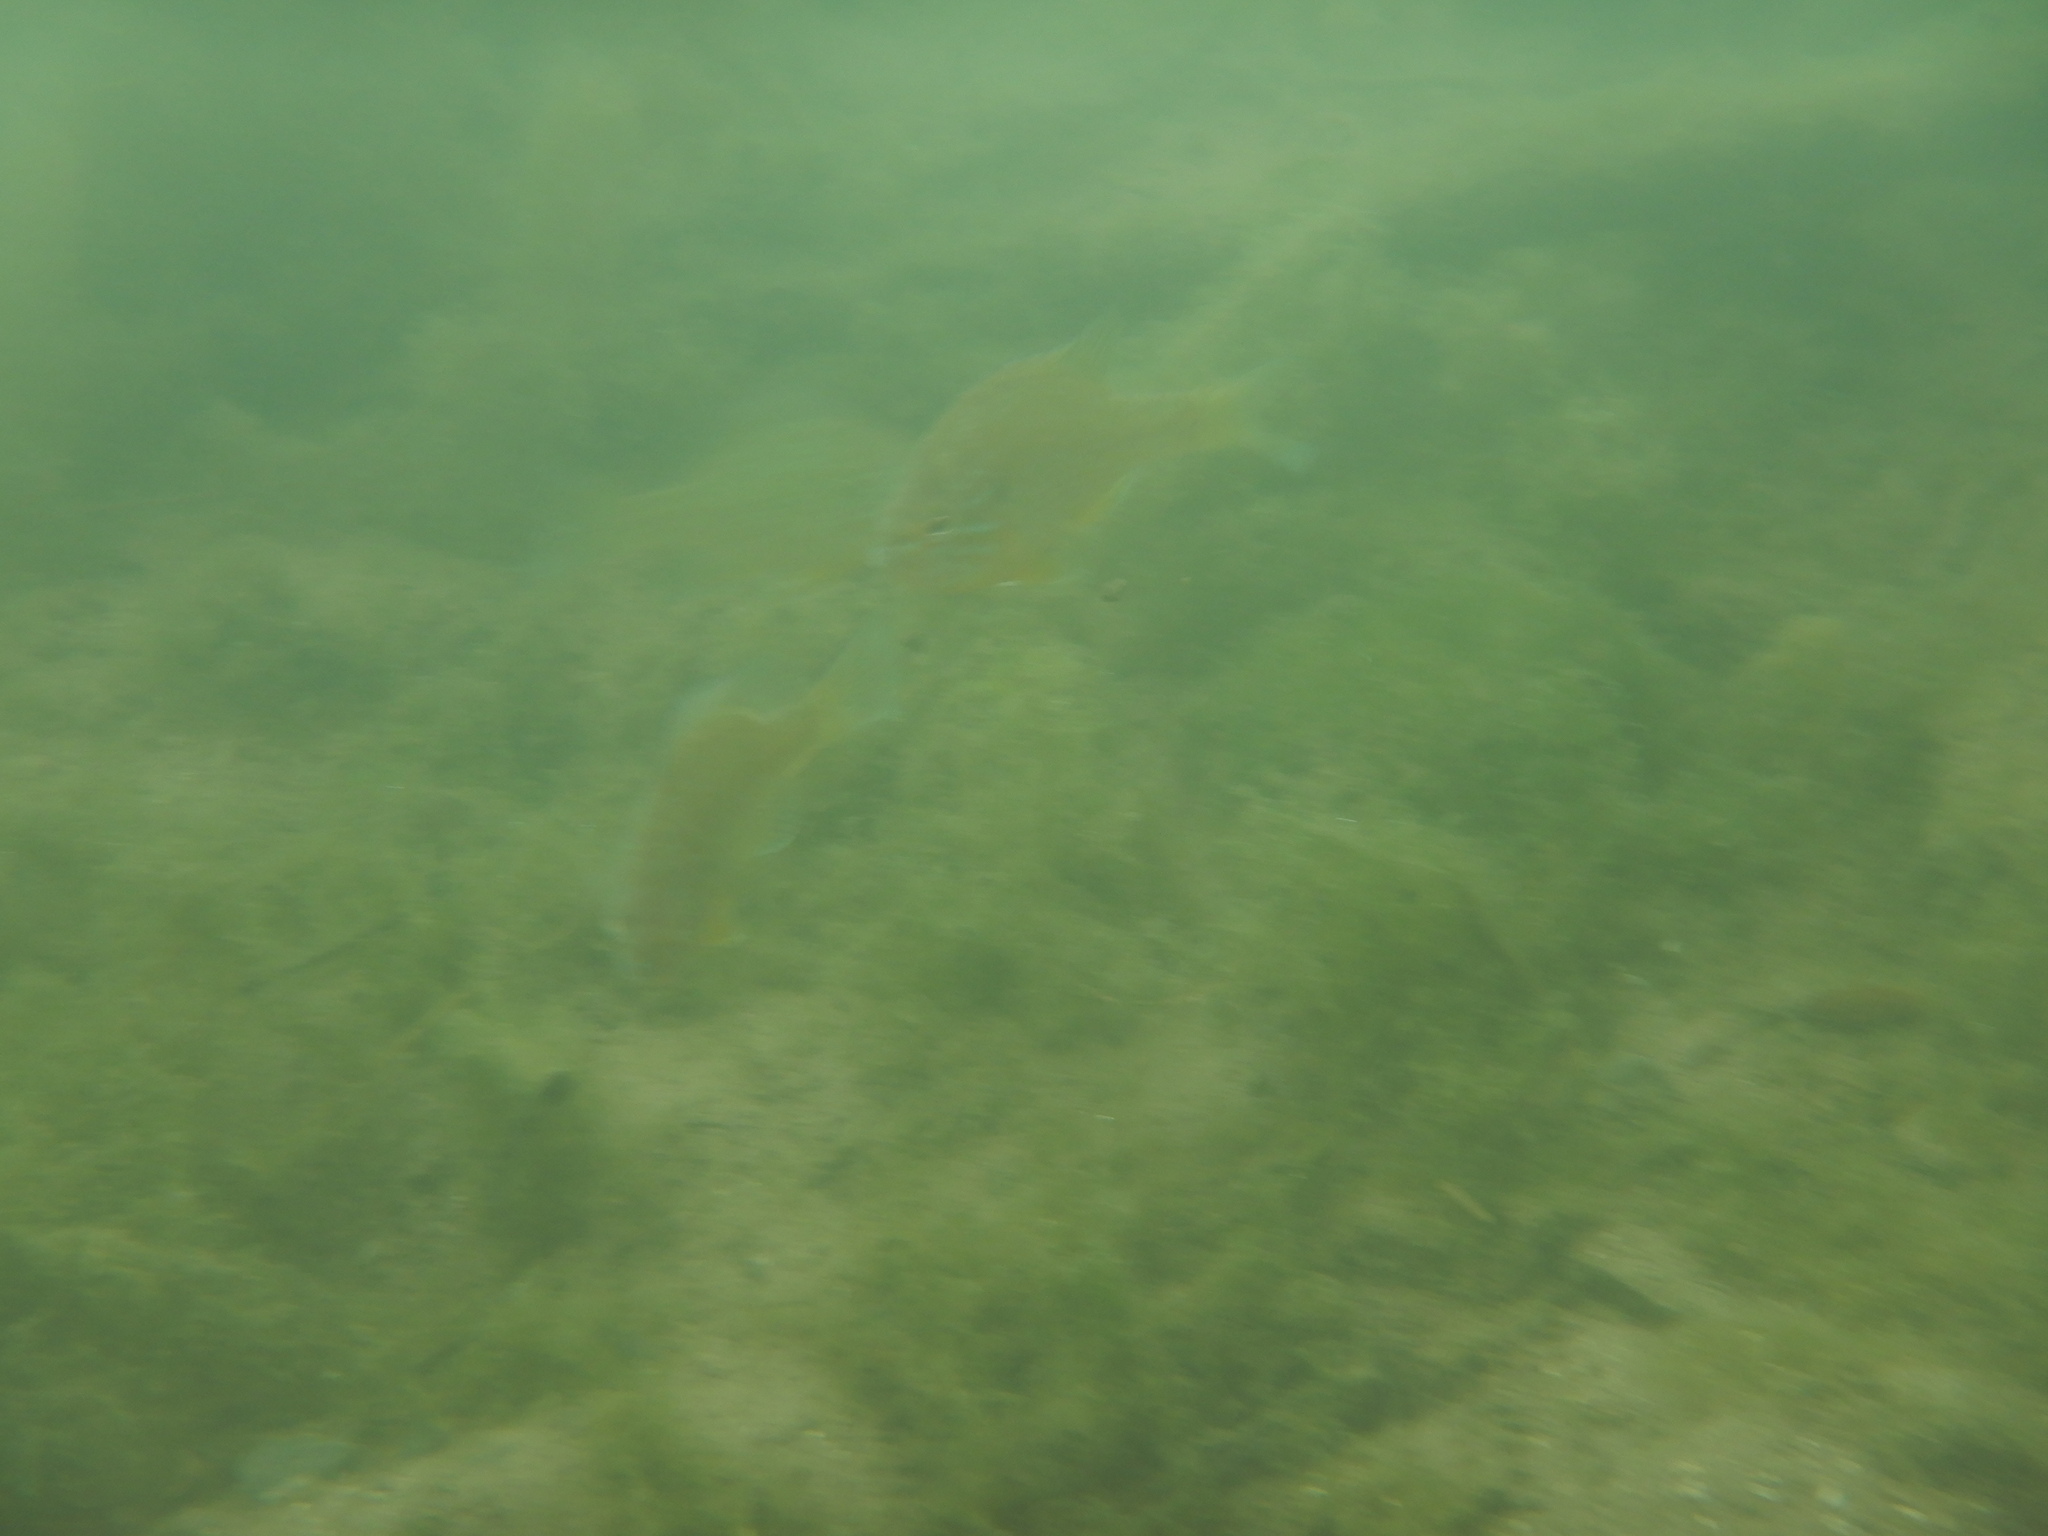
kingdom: Animalia
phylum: Chordata
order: Perciformes
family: Centrarchidae
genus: Lepomis
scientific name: Lepomis gibbosus
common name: Pumpkinseed
